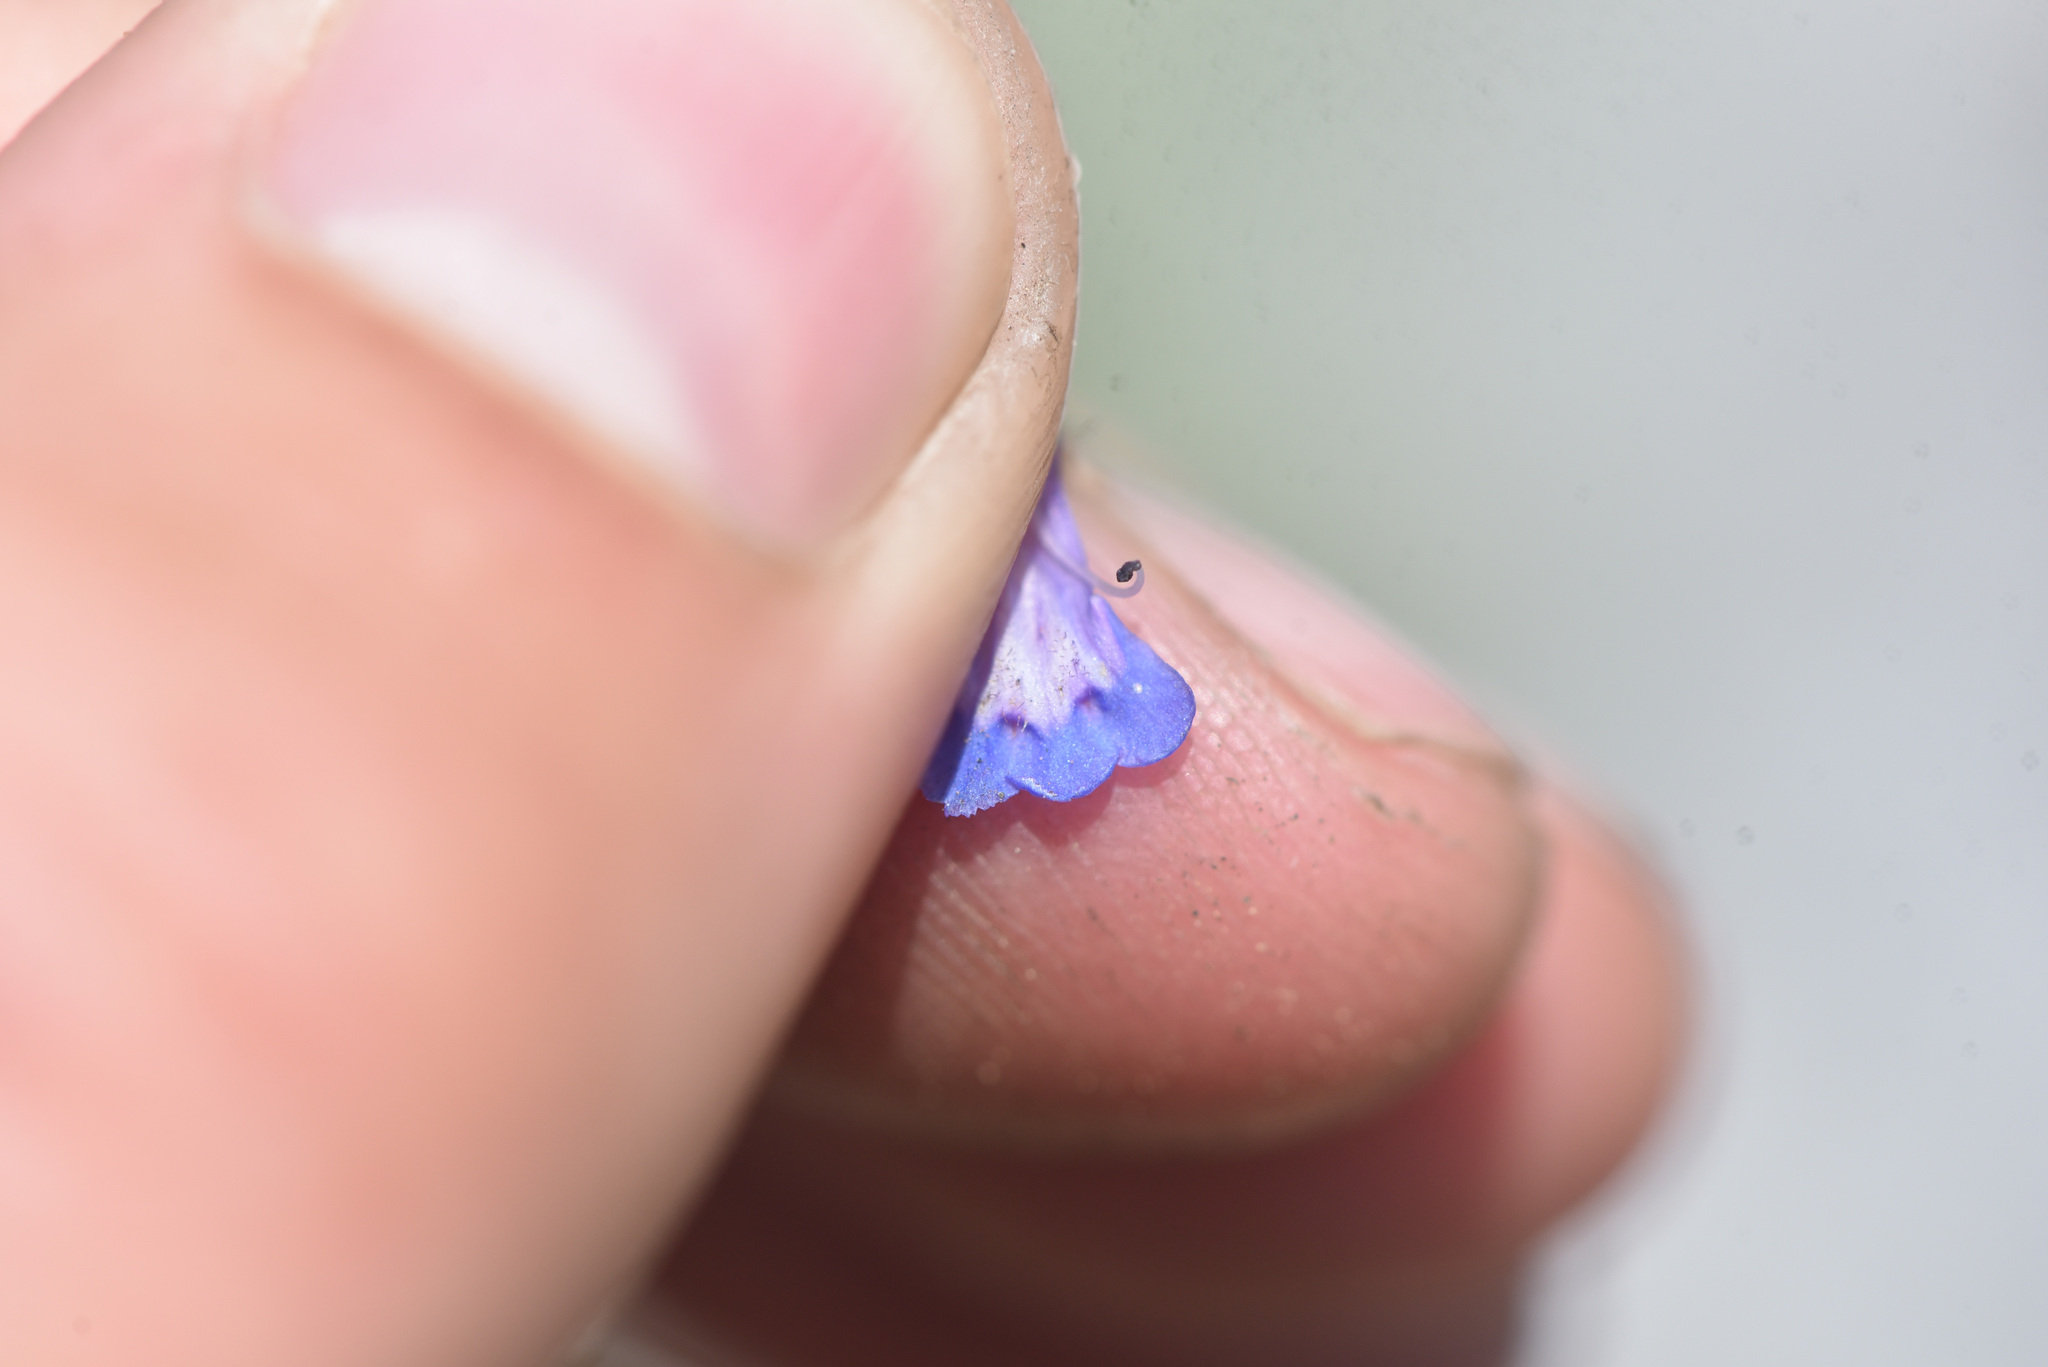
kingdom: Plantae
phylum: Tracheophyta
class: Magnoliopsida
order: Lamiales
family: Plantaginaceae
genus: Penstemon
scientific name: Penstemon procerus
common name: Small-flower penstemon
